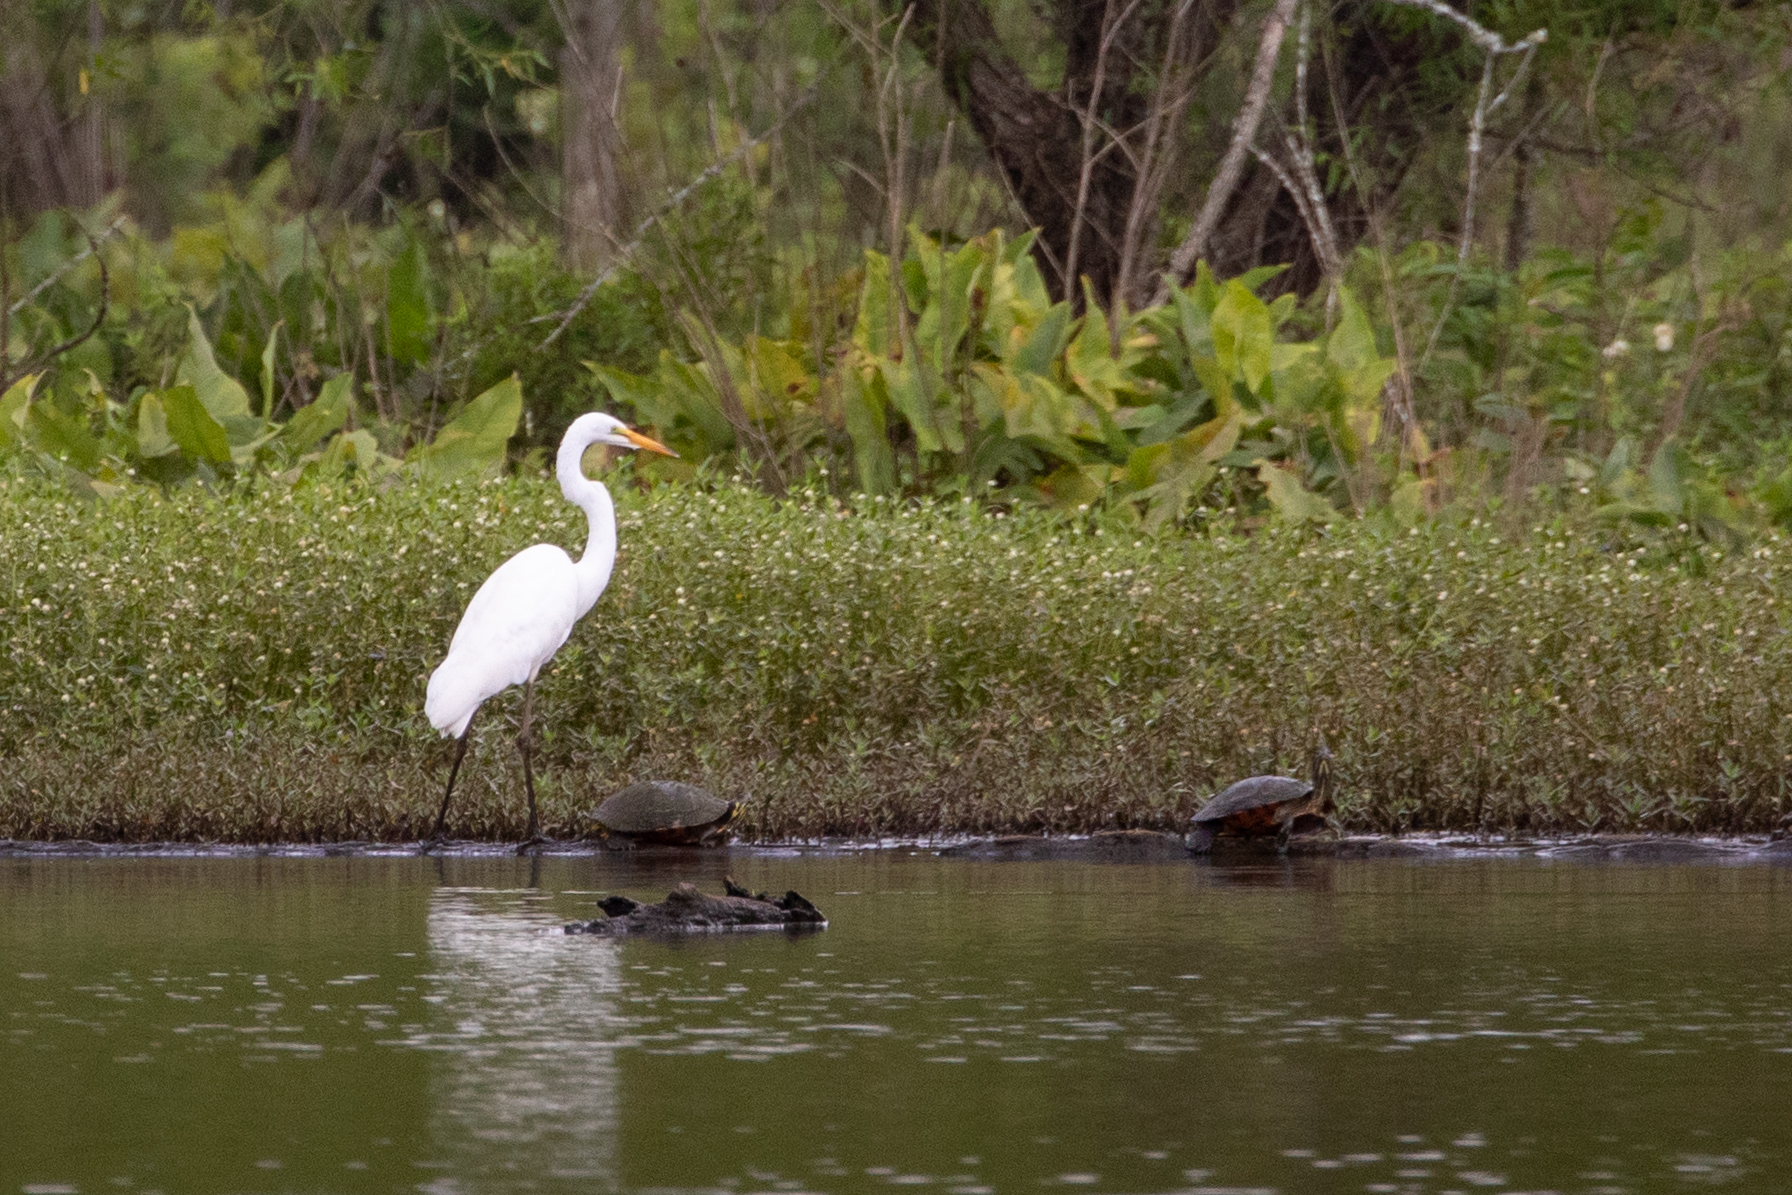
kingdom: Animalia
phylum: Chordata
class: Aves
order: Pelecaniformes
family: Ardeidae
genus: Ardea
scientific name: Ardea alba
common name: Great egret
